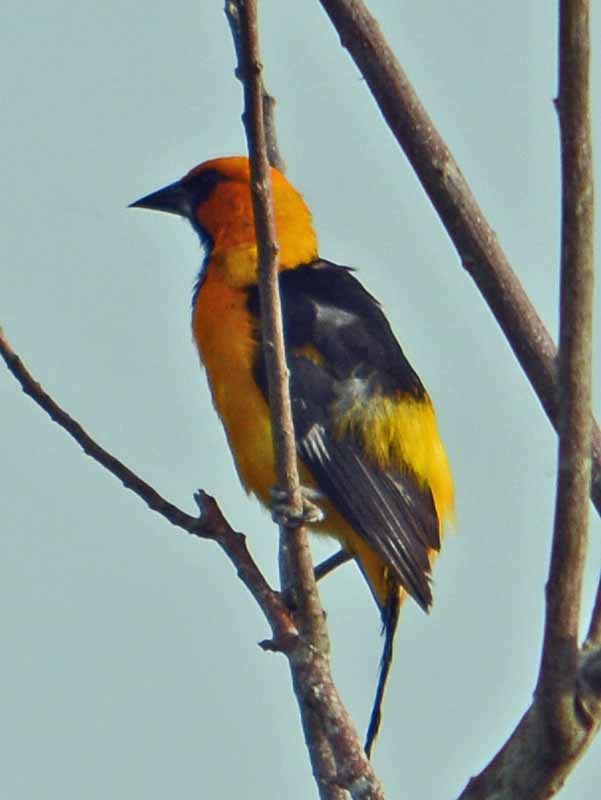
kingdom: Animalia
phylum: Chordata
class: Aves
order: Passeriformes
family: Icteridae
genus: Icterus
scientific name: Icterus gularis
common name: Altamira oriole
